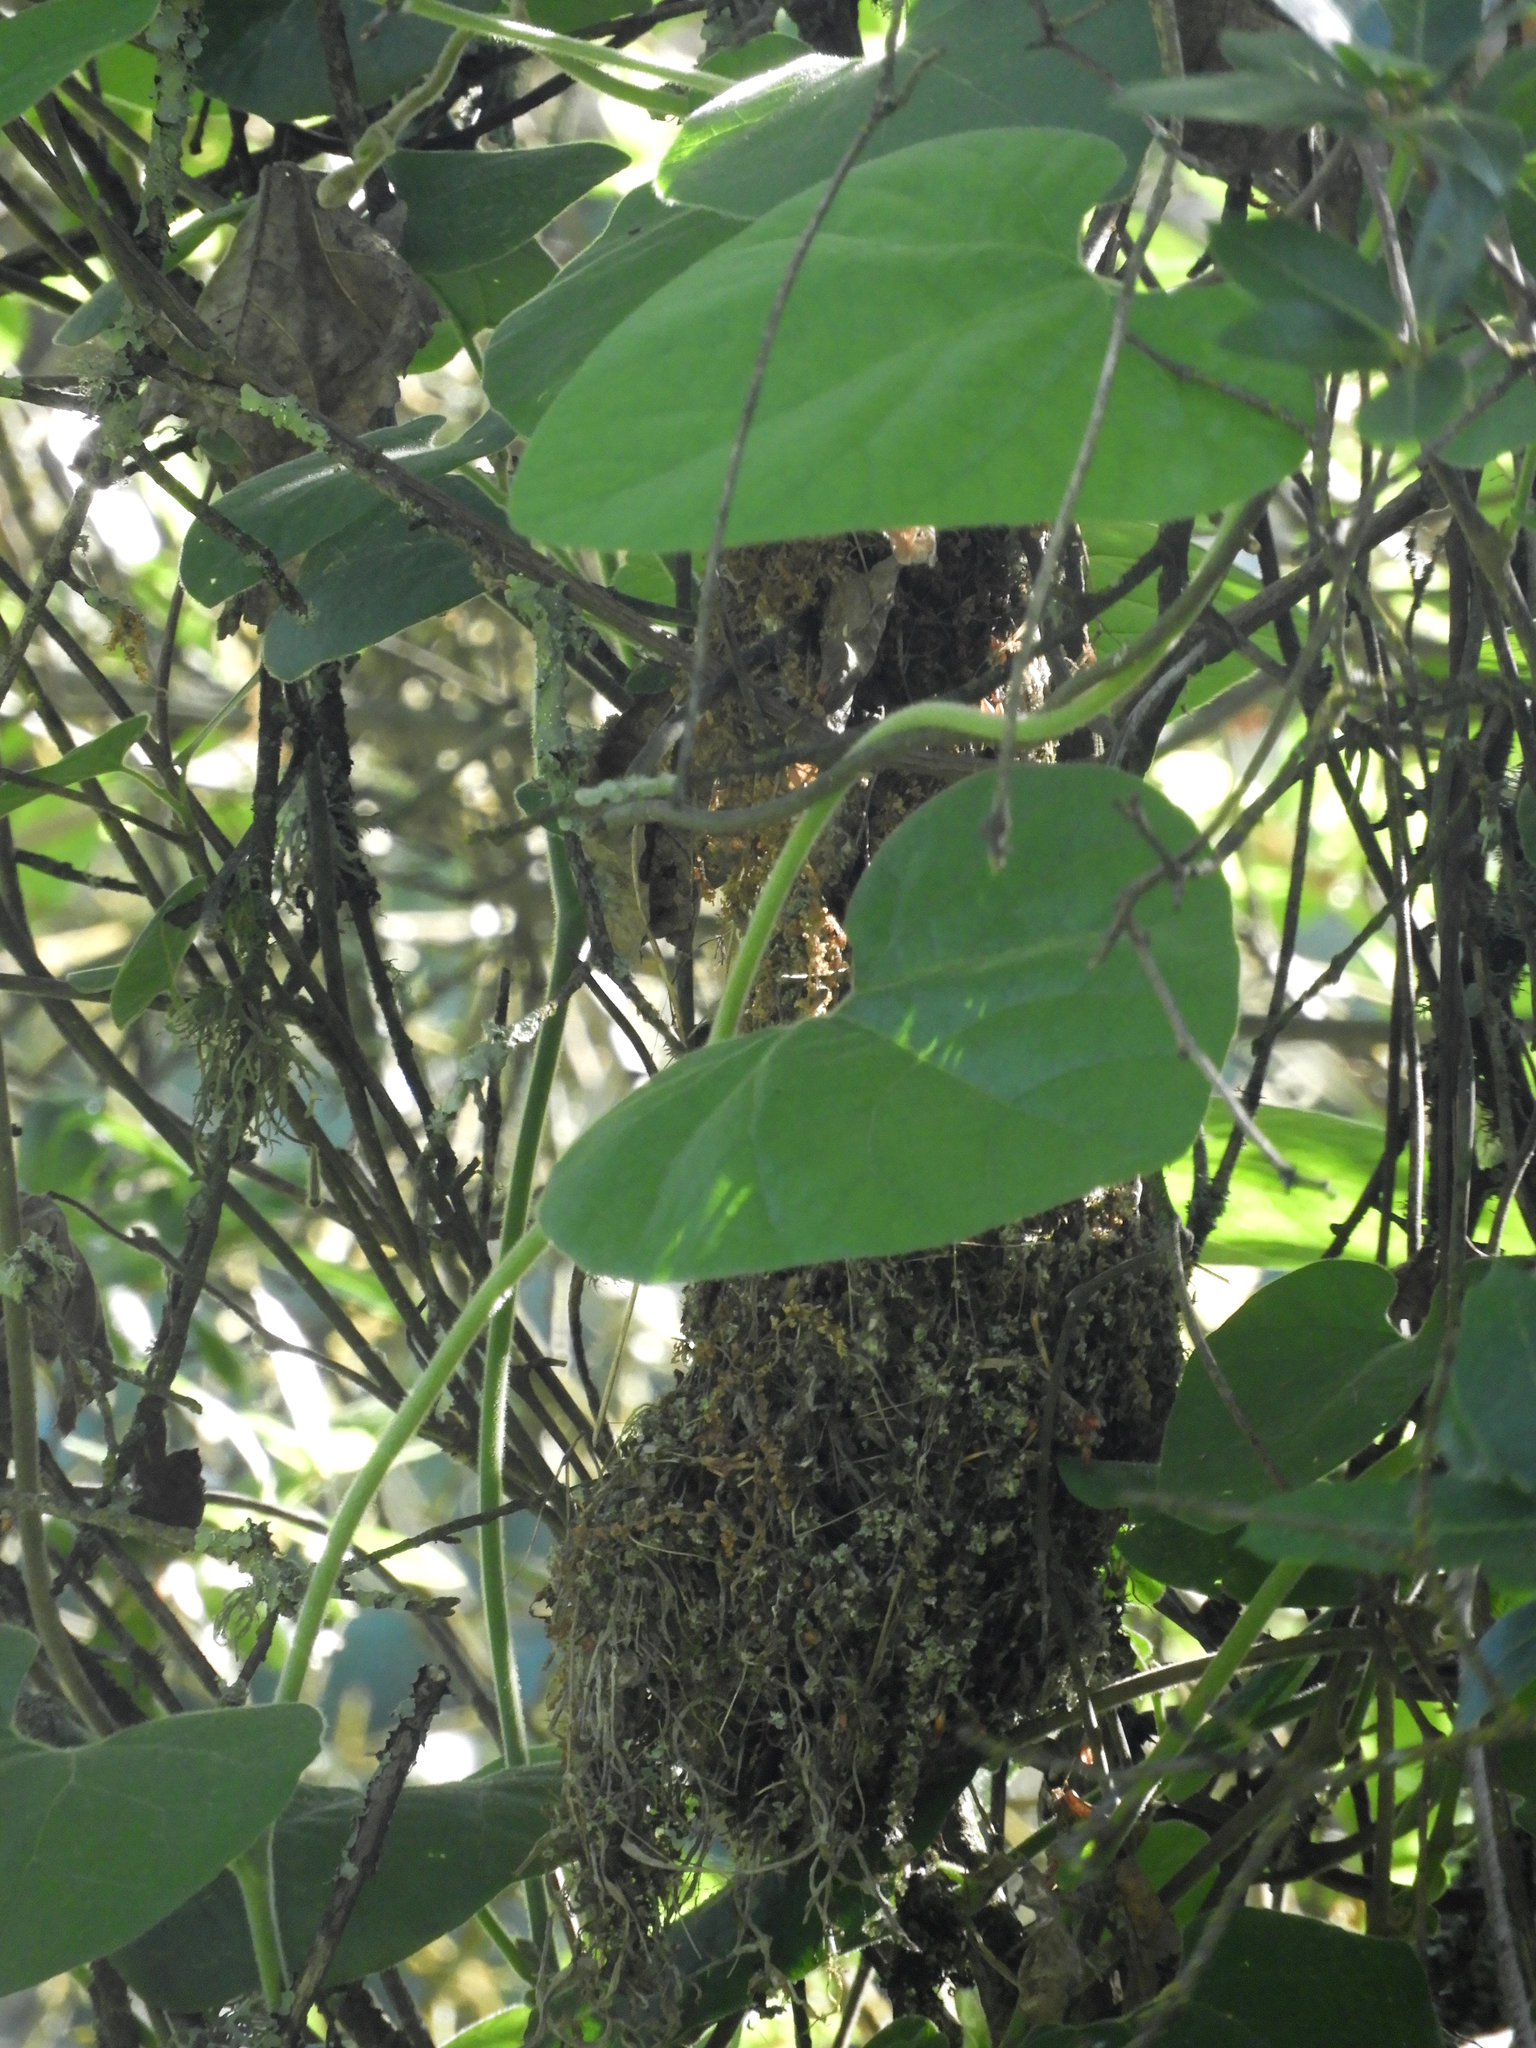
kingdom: Animalia
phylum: Chordata
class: Aves
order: Passeriformes
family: Aegithalidae
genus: Psaltriparus
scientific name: Psaltriparus minimus
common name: American bushtit
